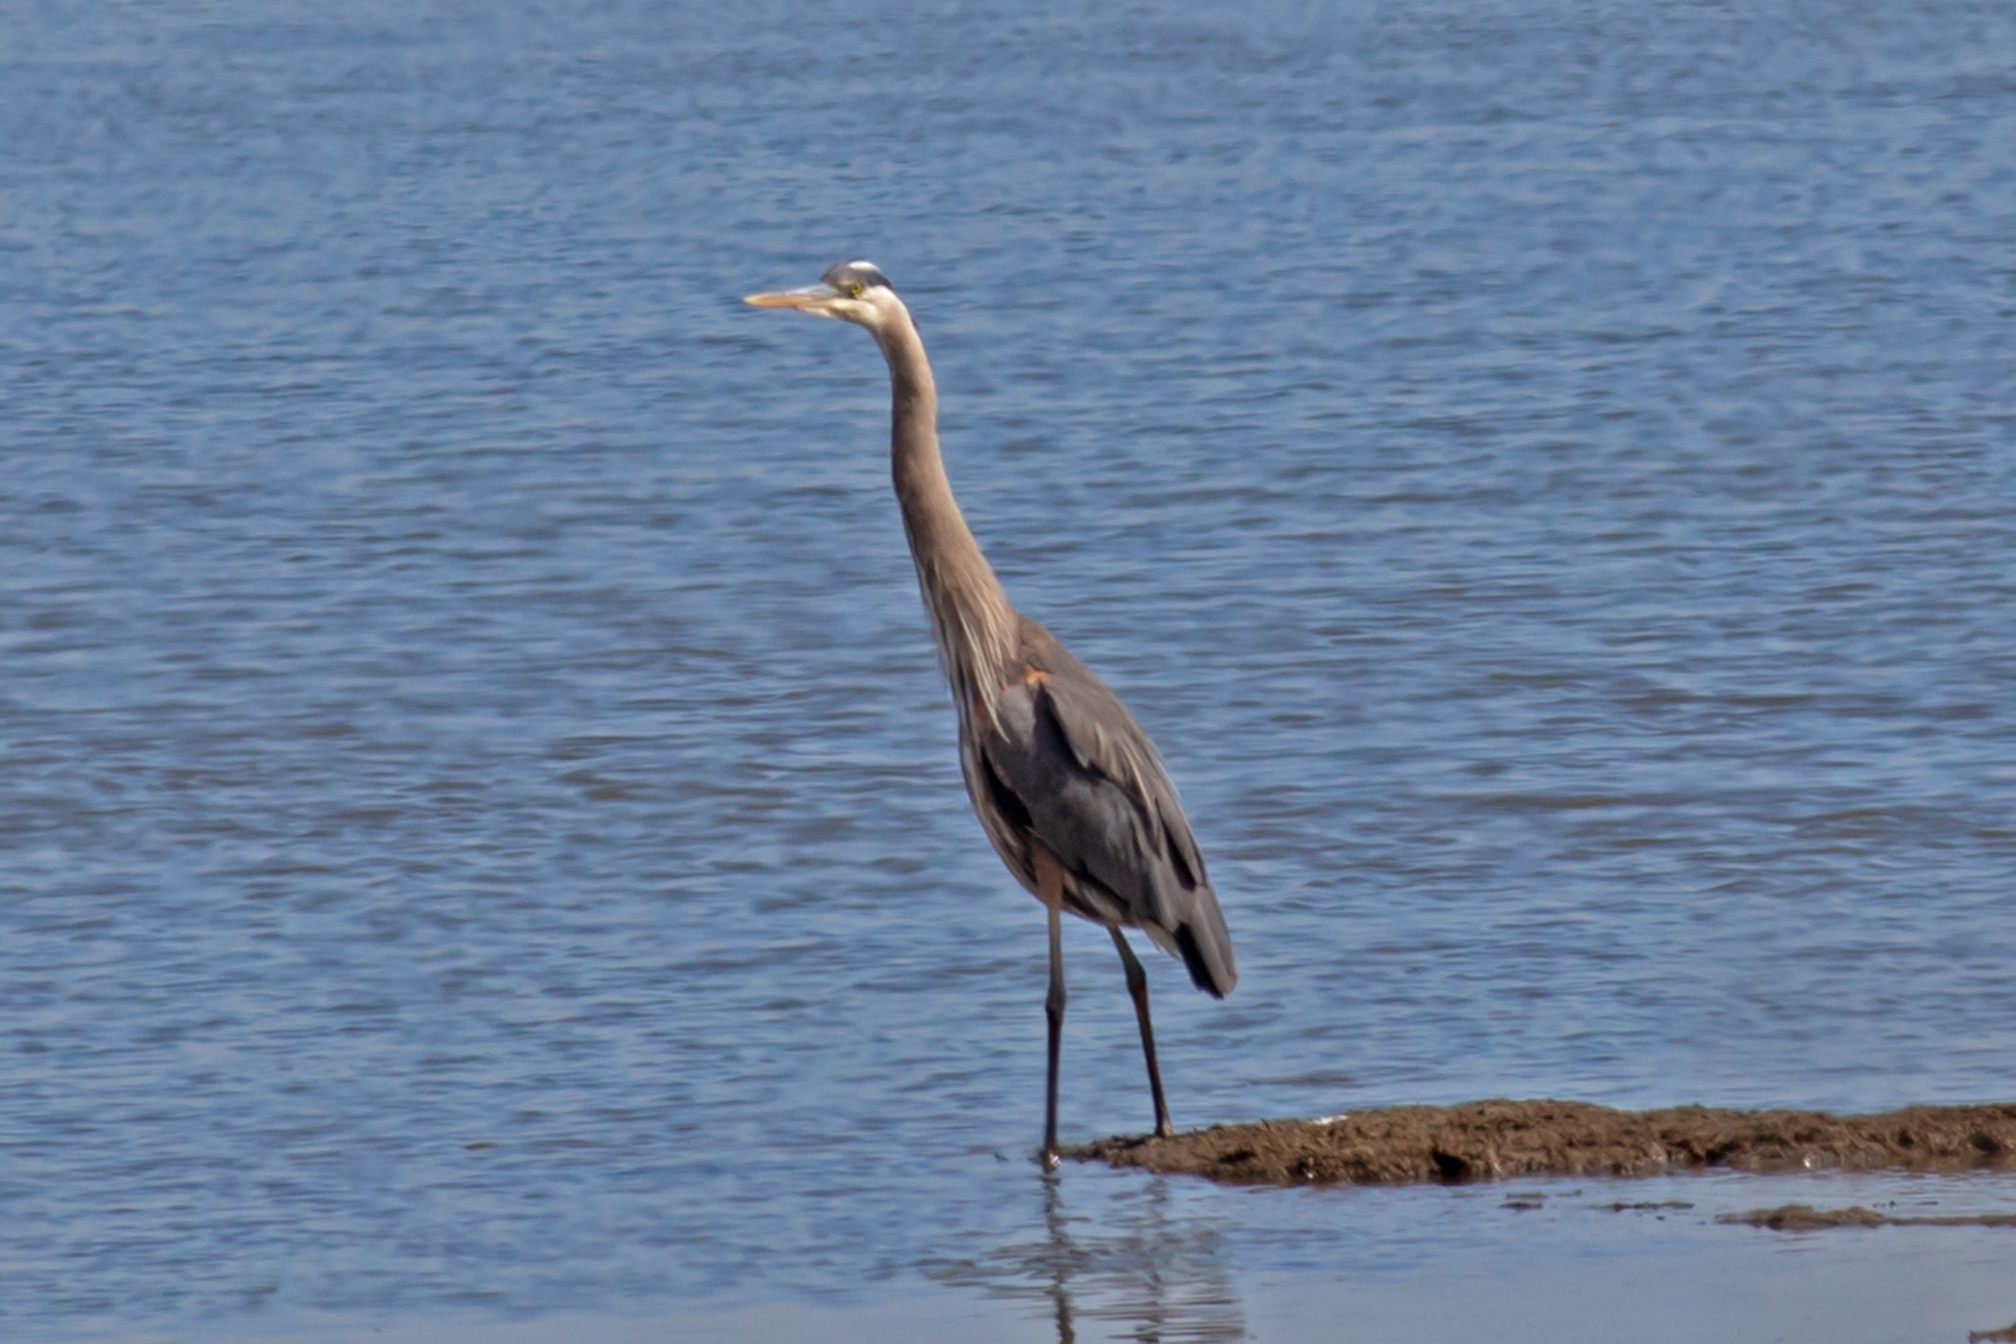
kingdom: Animalia
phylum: Chordata
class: Aves
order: Pelecaniformes
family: Ardeidae
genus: Ardea
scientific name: Ardea herodias
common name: Great blue heron
